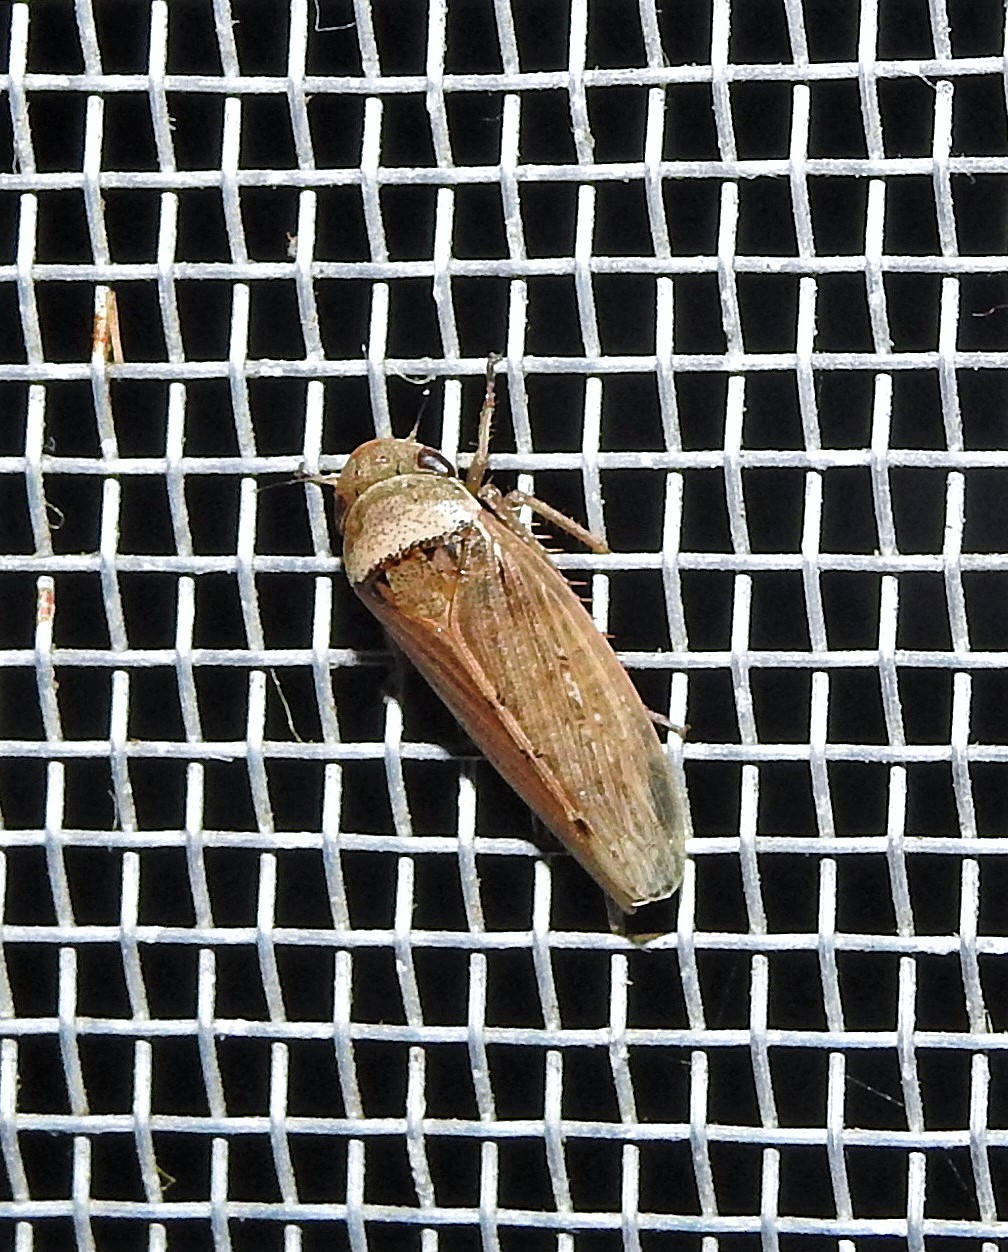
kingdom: Animalia
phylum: Arthropoda
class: Insecta
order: Hemiptera
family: Cicadellidae
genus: Sordana
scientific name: Sordana sordida
